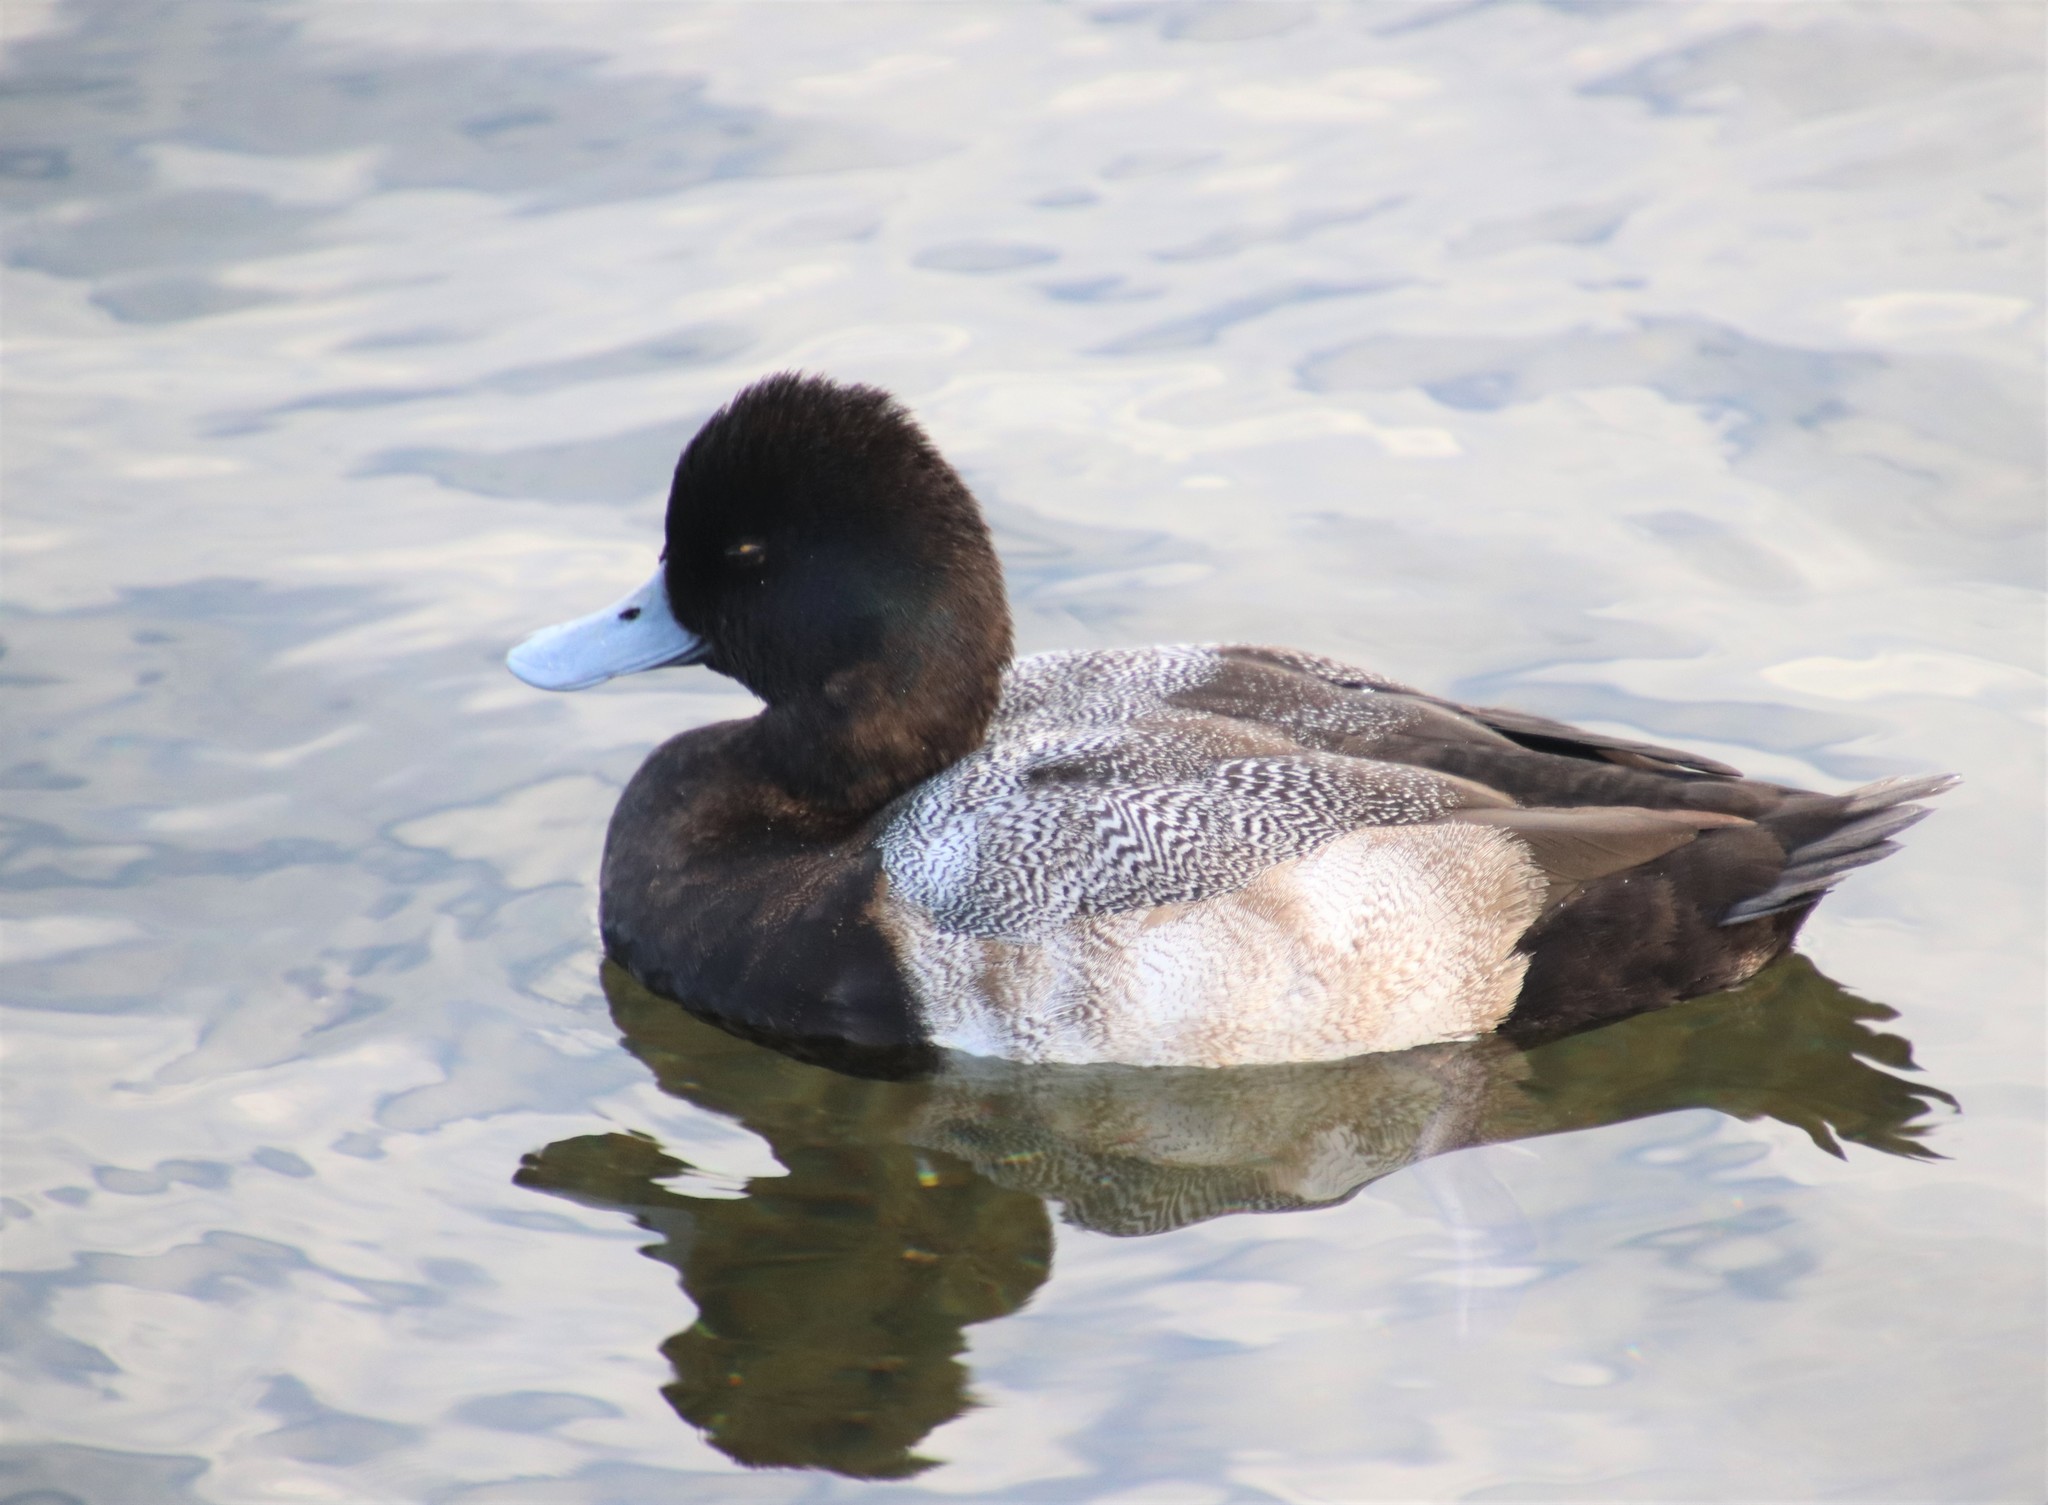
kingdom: Animalia
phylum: Chordata
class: Aves
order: Anseriformes
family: Anatidae
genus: Aythya
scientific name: Aythya affinis
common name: Lesser scaup
